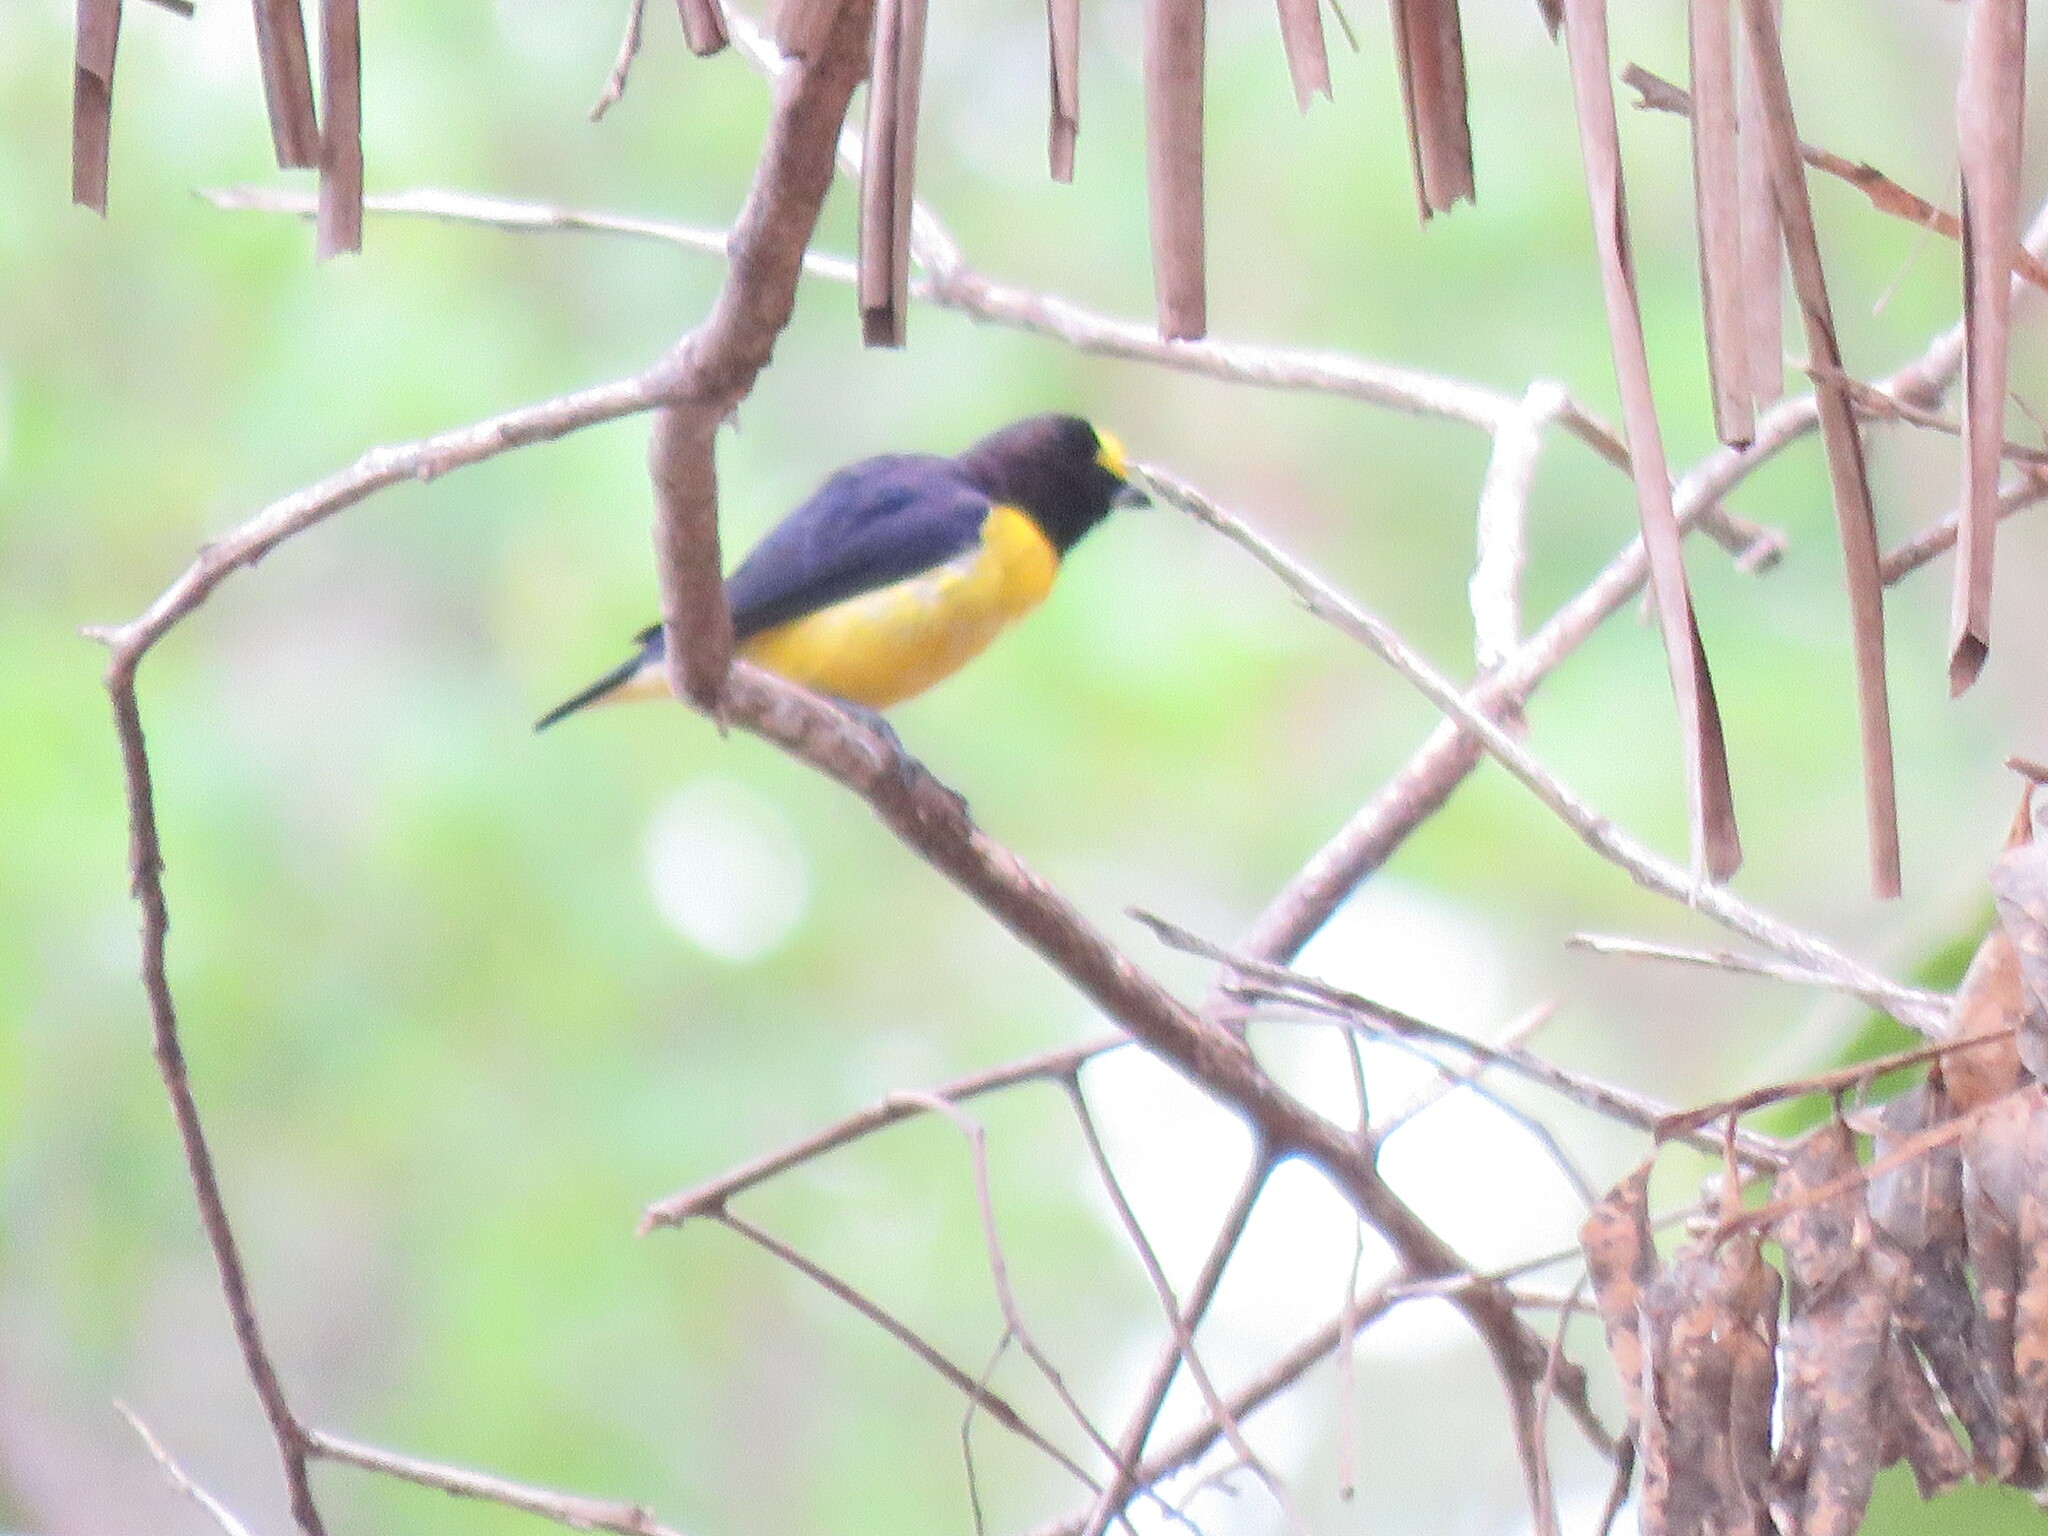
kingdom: Animalia
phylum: Chordata
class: Aves
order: Passeriformes
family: Fringillidae
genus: Euphonia
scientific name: Euphonia minuta
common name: White-vented euphonia
